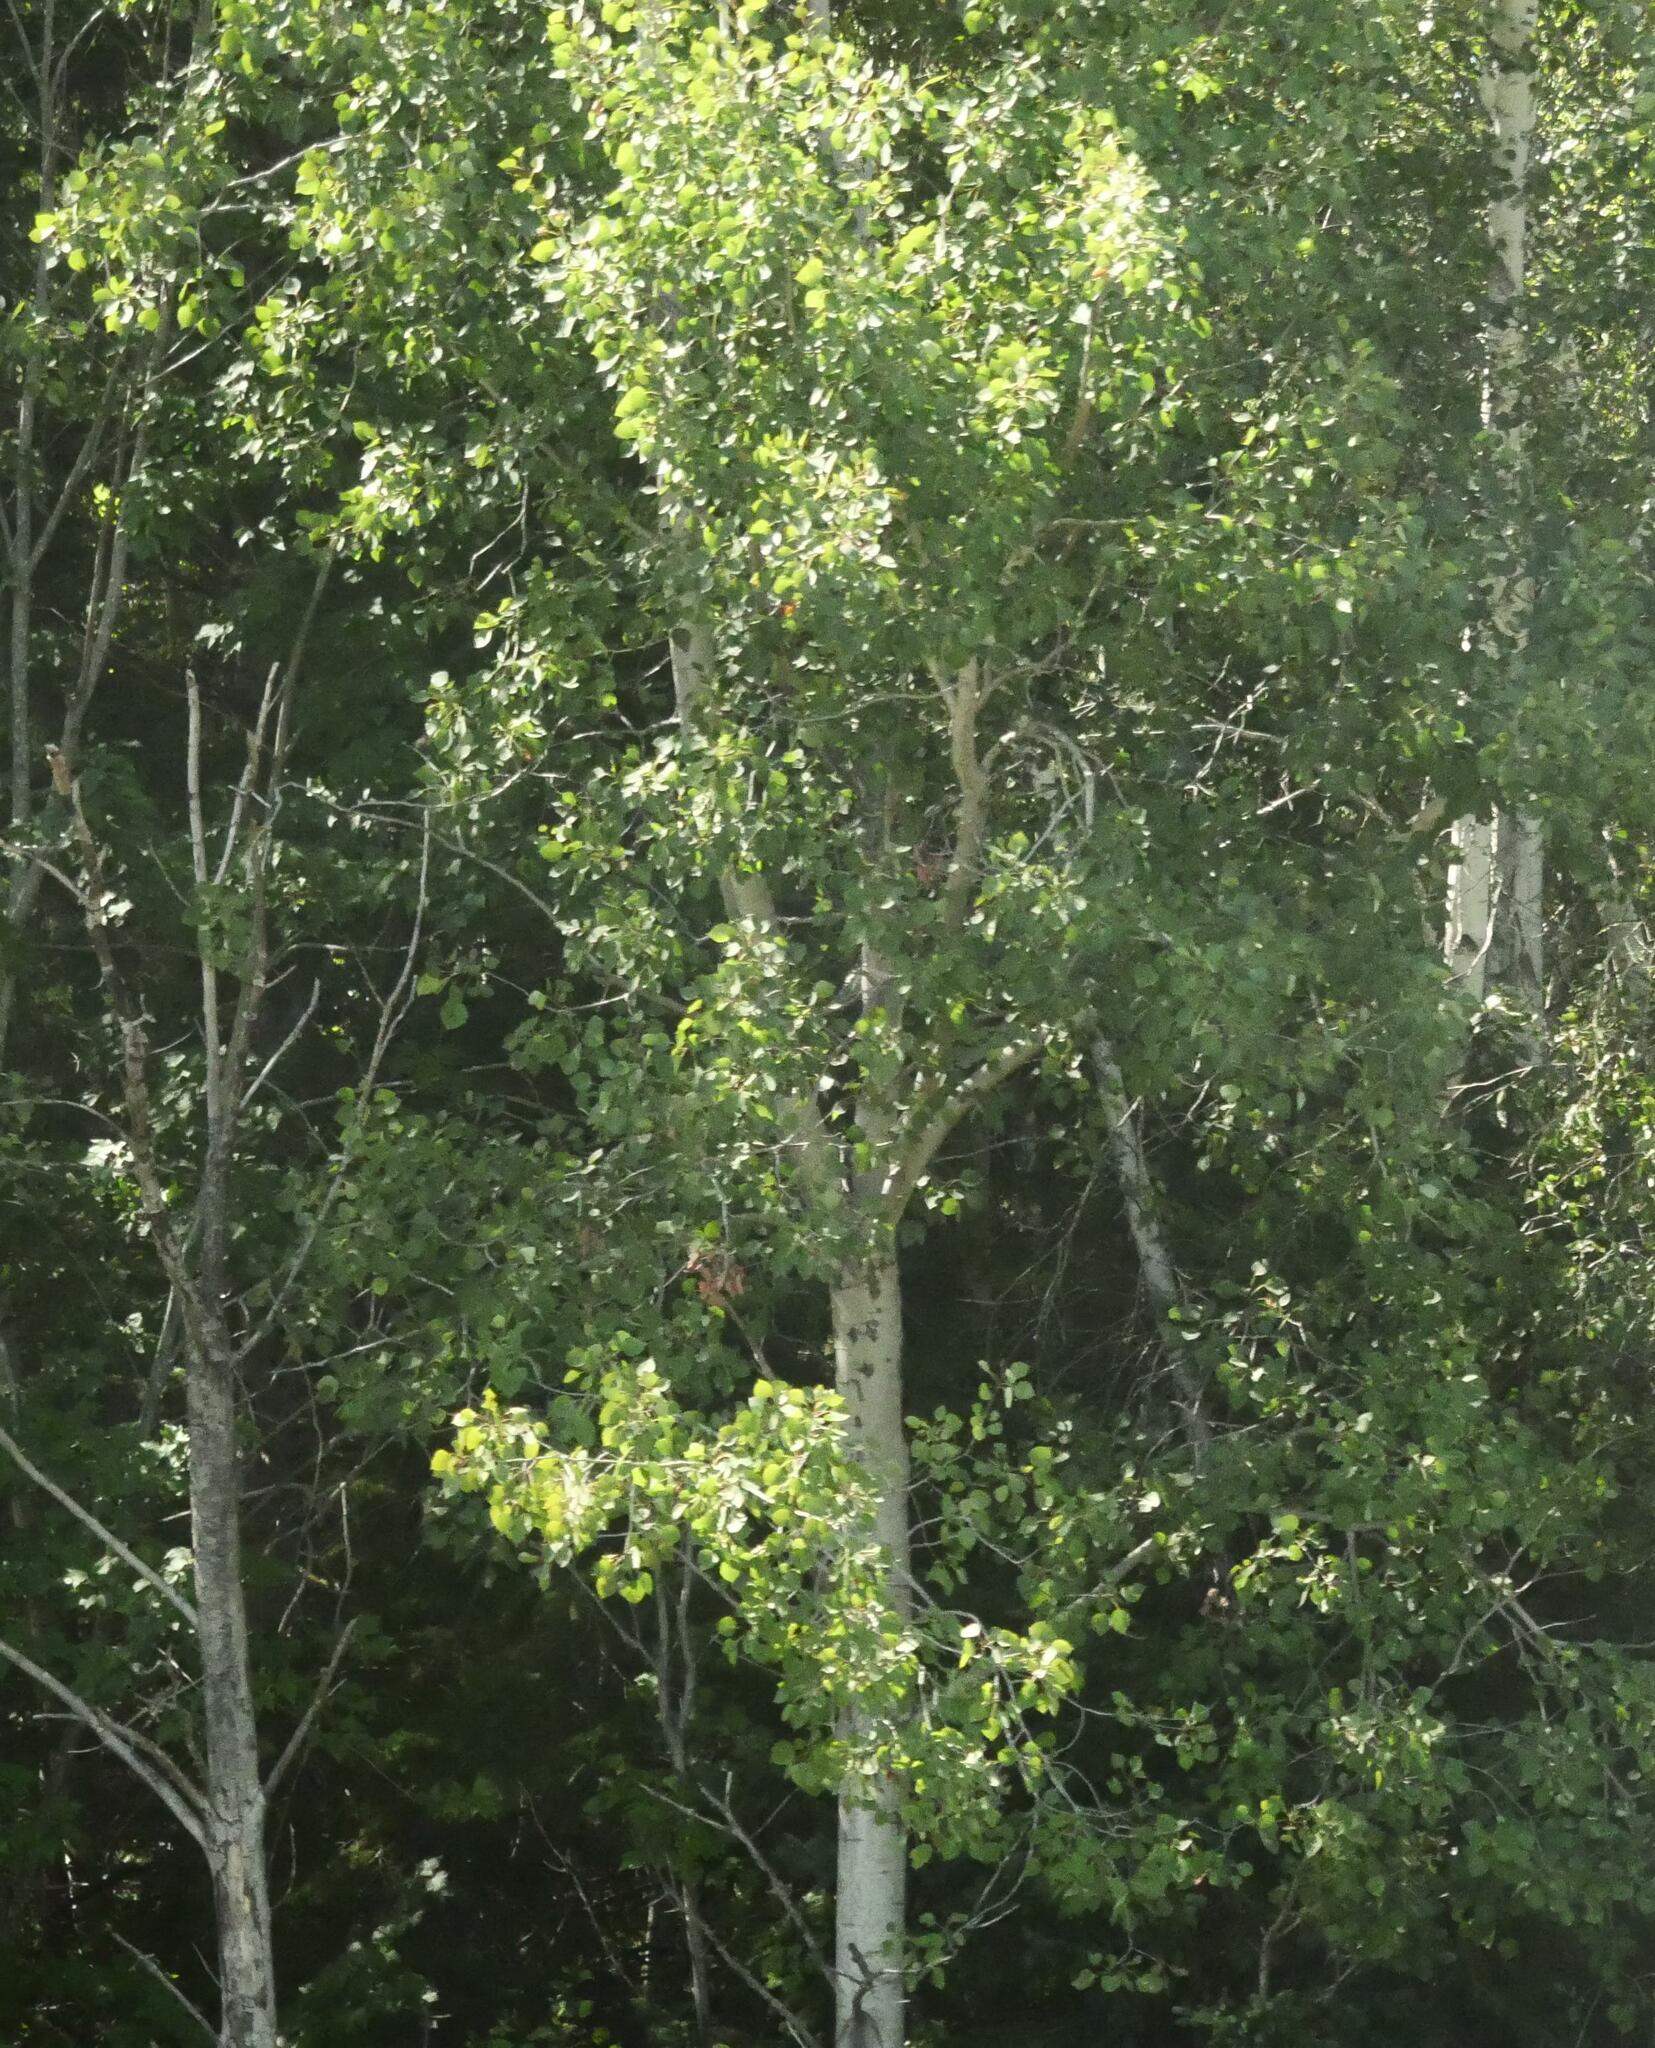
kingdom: Plantae
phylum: Tracheophyta
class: Magnoliopsida
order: Malpighiales
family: Salicaceae
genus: Populus
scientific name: Populus tremuloides
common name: Quaking aspen
